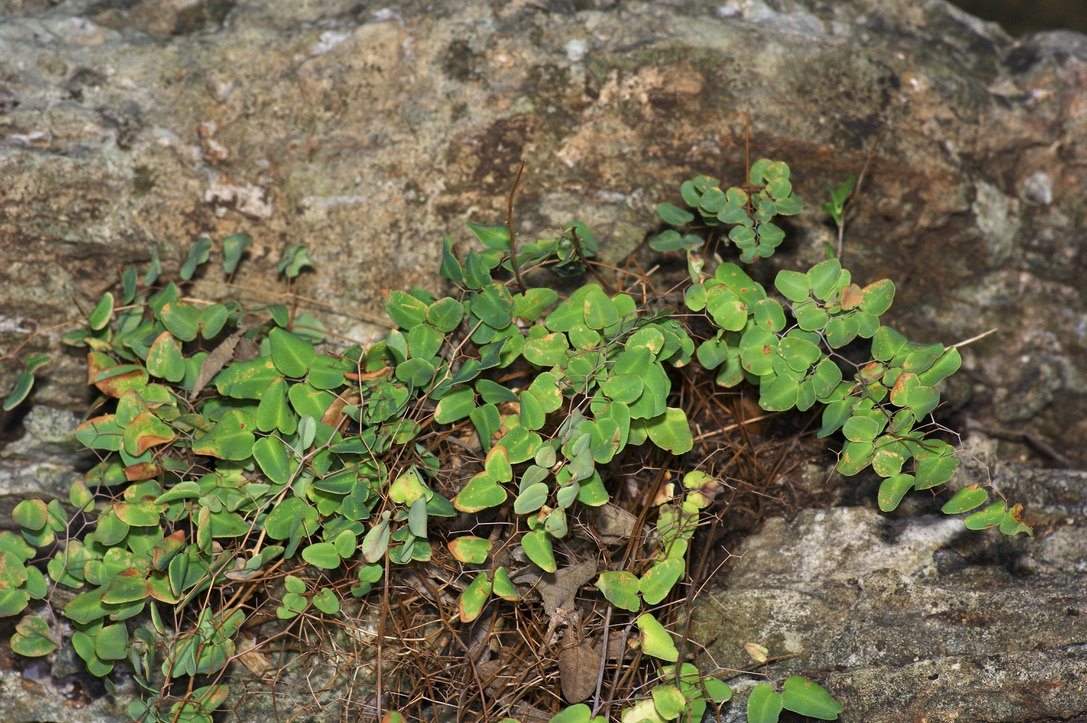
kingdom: Plantae
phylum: Tracheophyta
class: Polypodiopsida
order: Polypodiales
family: Pteridaceae
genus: Pellaea
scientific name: Pellaea ovata
